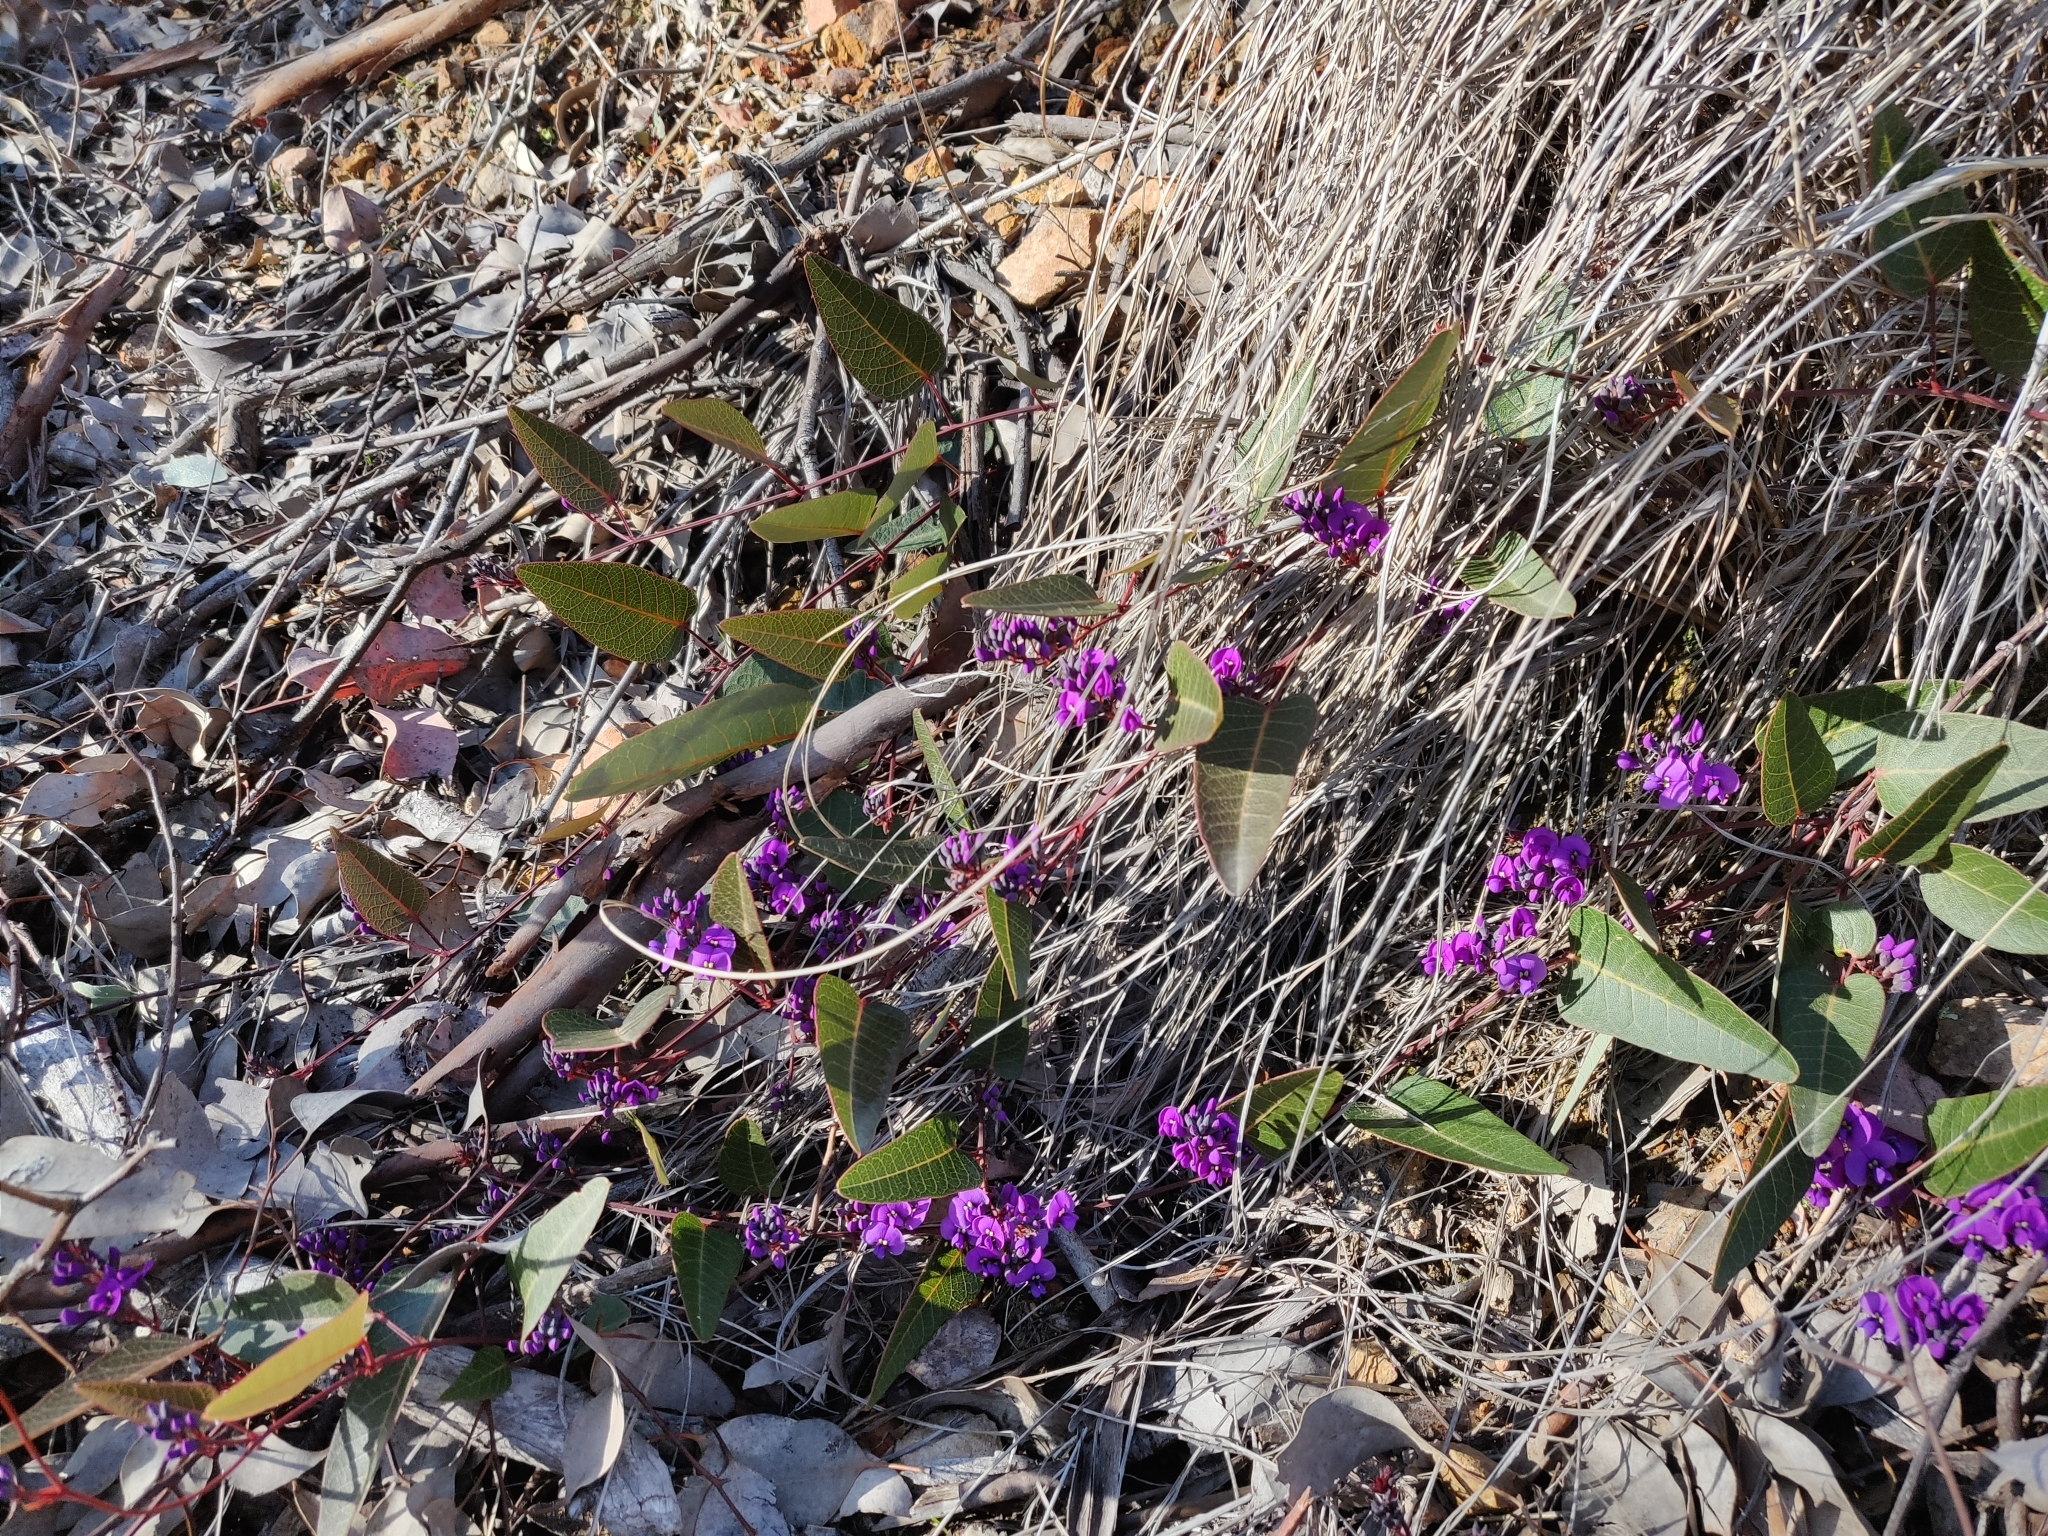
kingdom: Plantae
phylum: Tracheophyta
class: Magnoliopsida
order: Fabales
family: Fabaceae
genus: Hardenbergia
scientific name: Hardenbergia violacea
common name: Coral-pea
